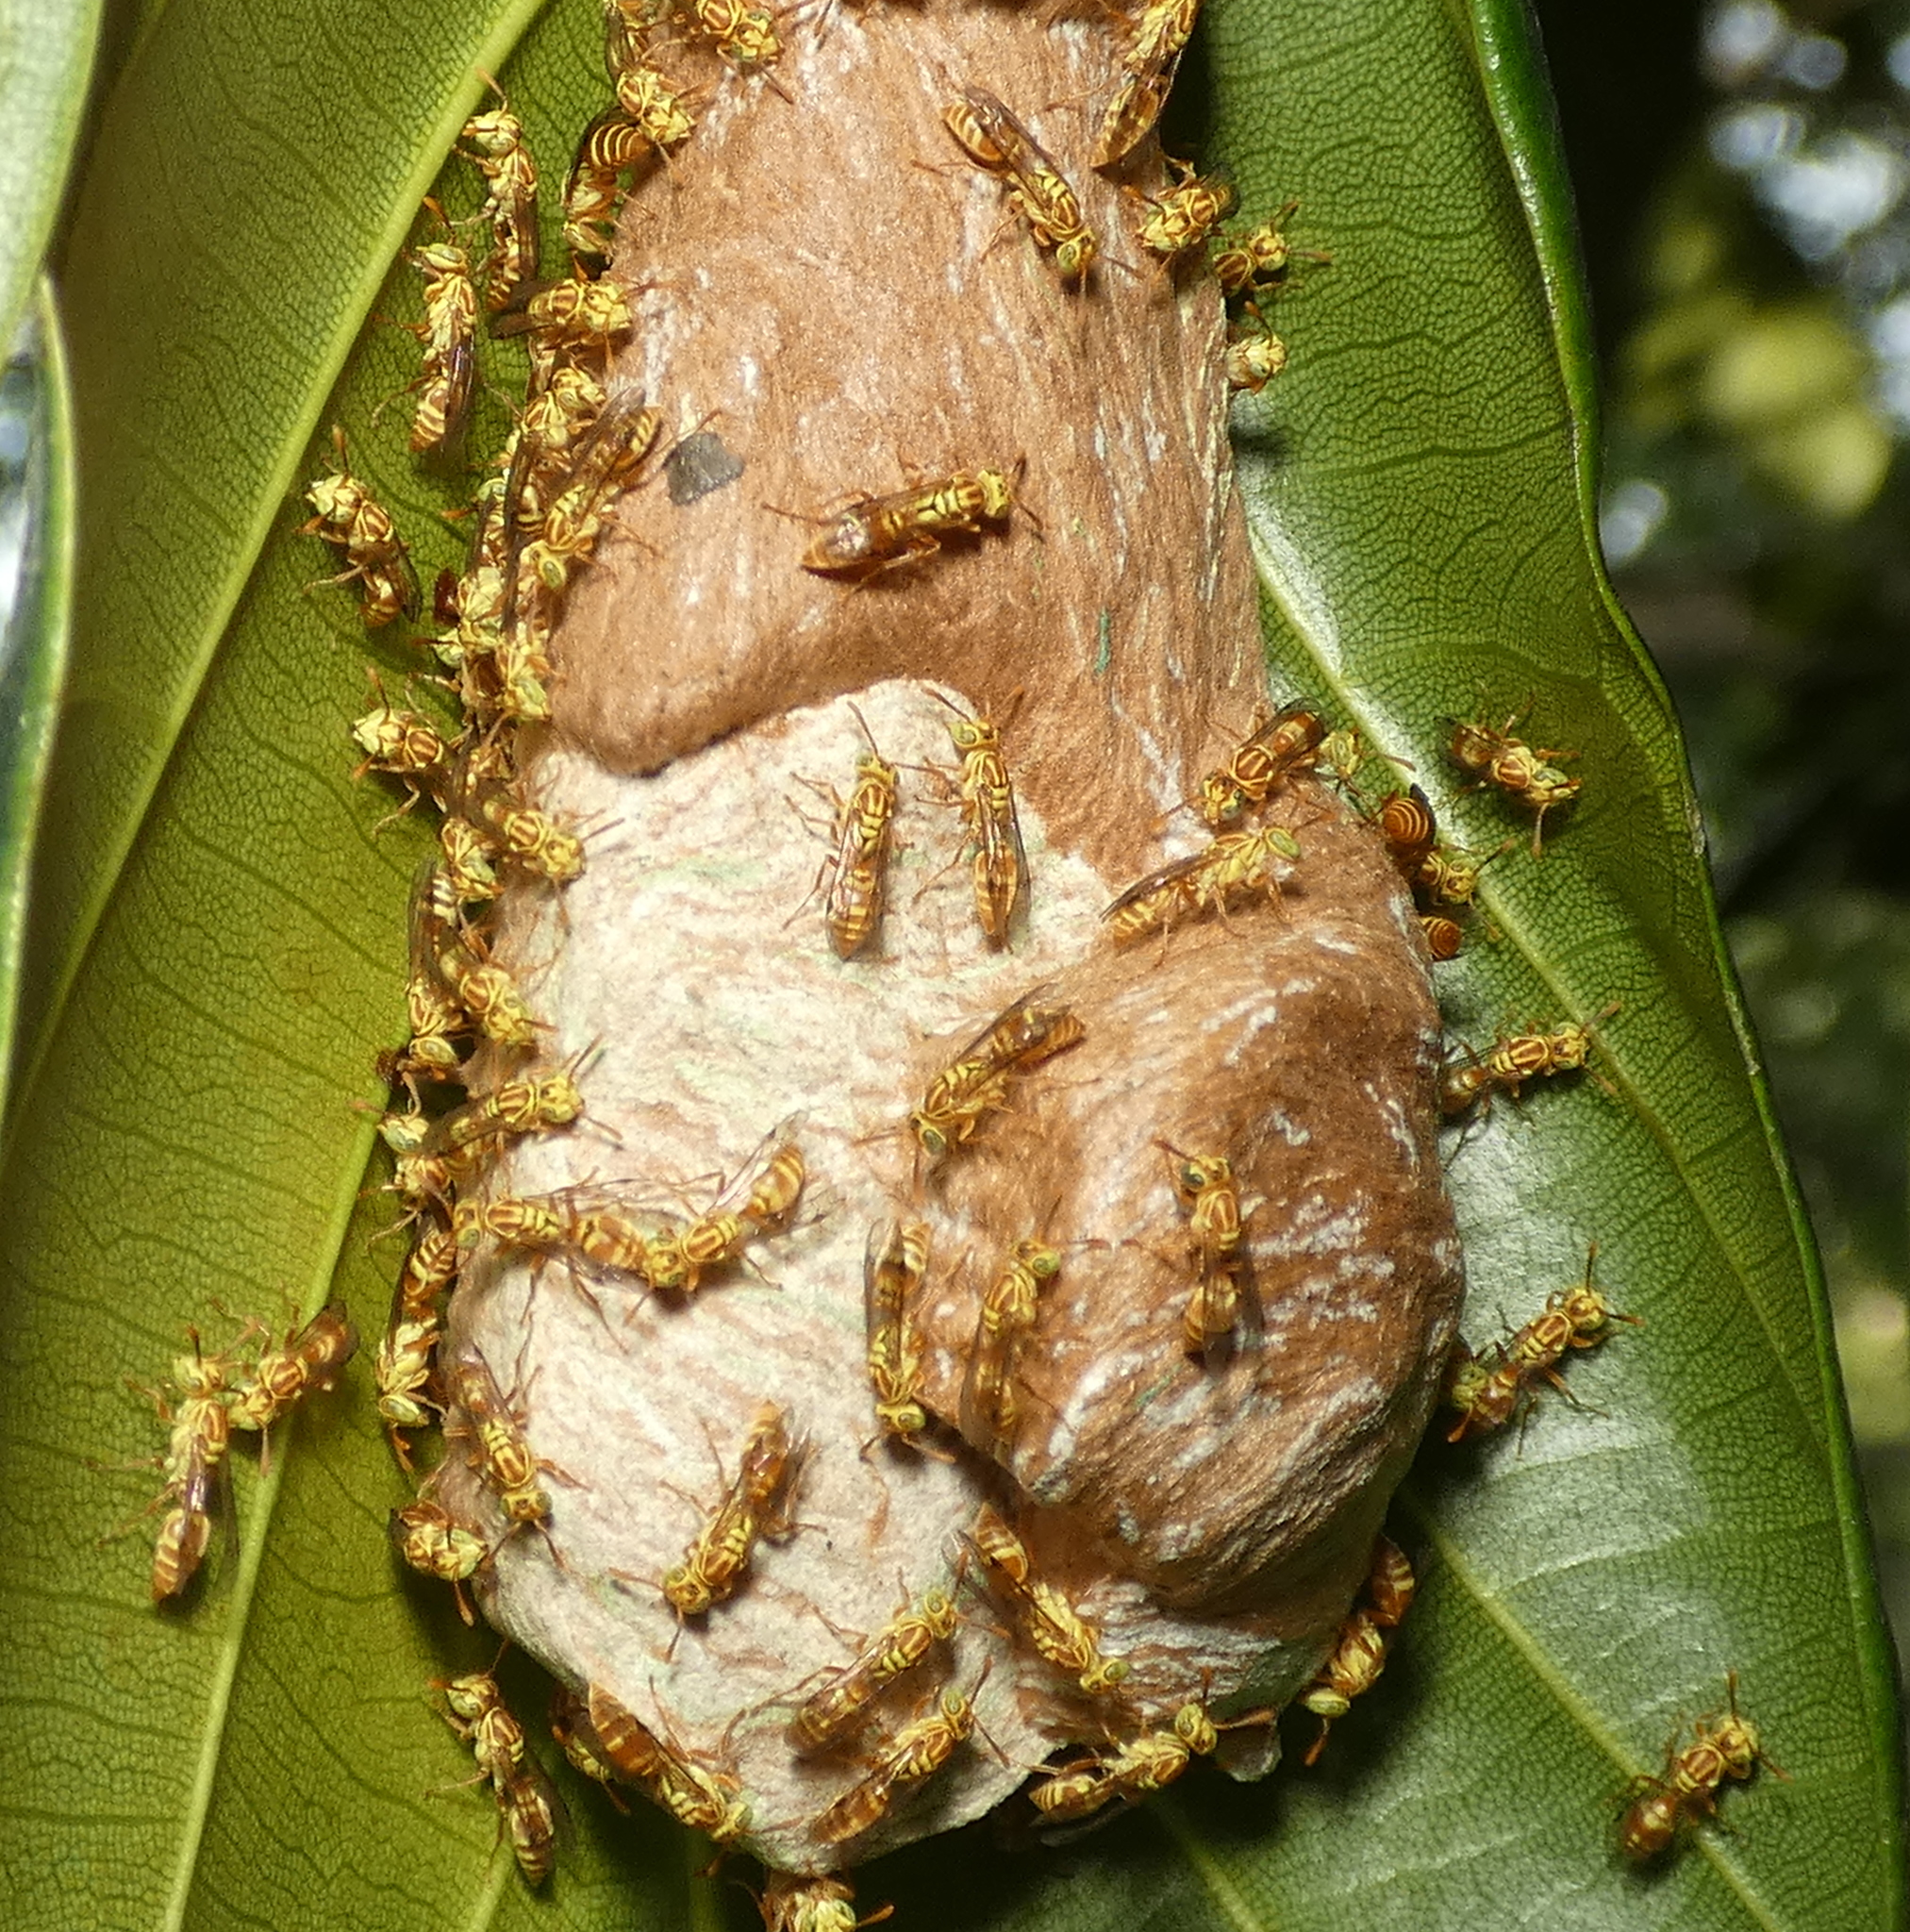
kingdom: Animalia
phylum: Arthropoda
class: Insecta
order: Hymenoptera
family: Vespidae
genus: Protopolybia
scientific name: Protopolybia potiguara
